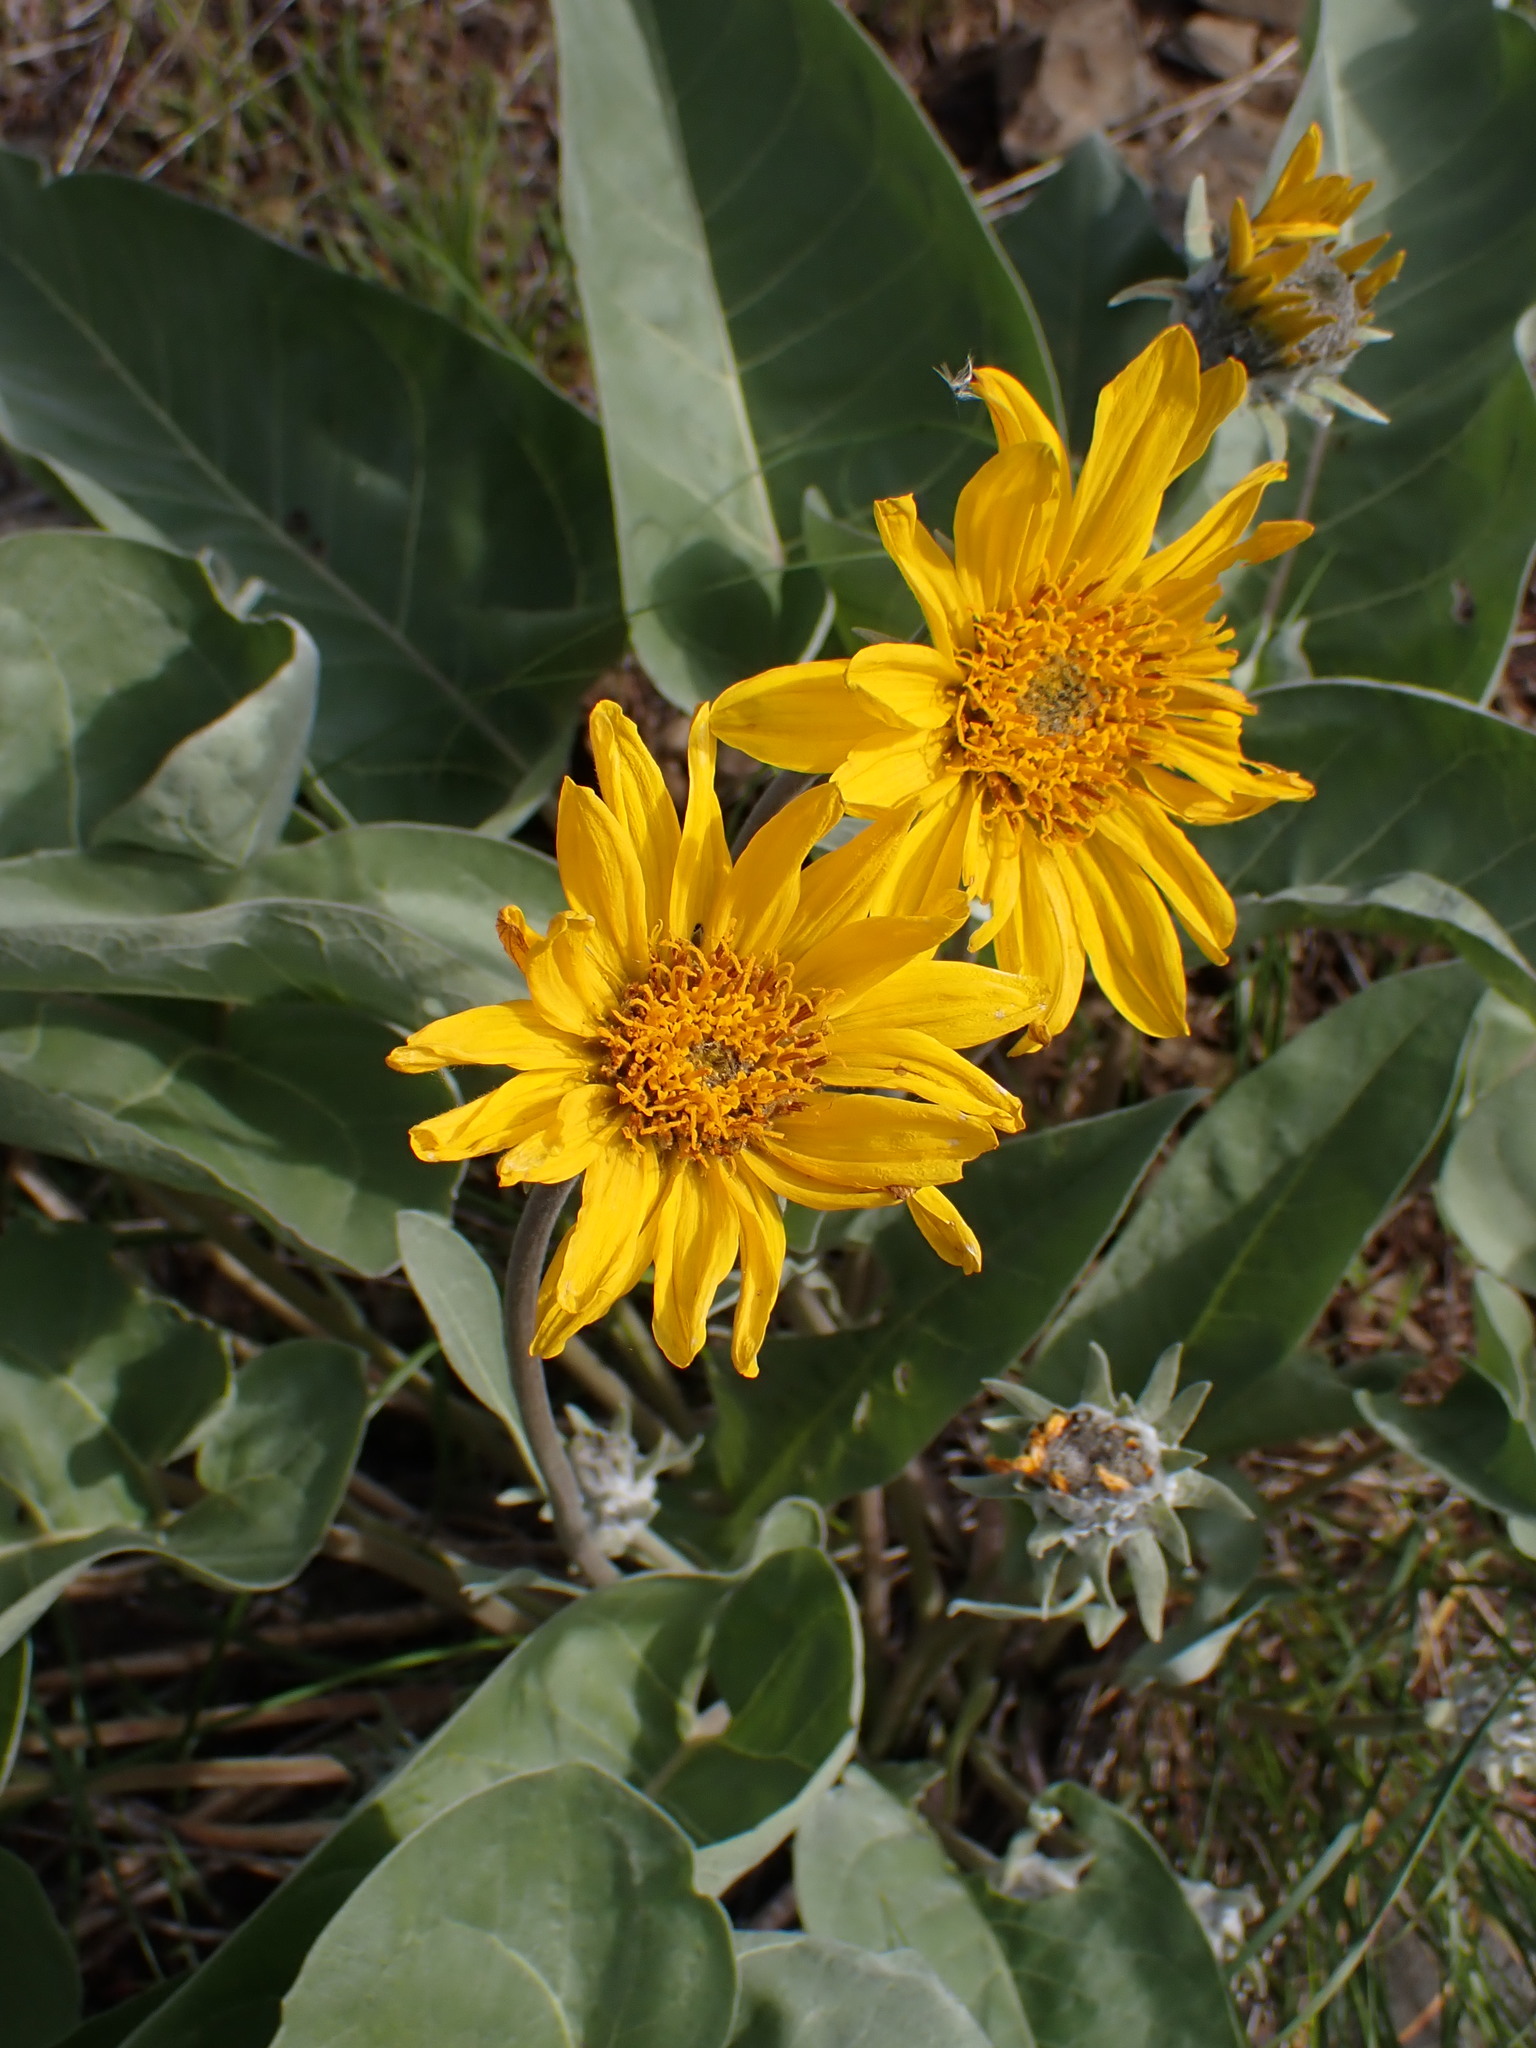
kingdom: Plantae
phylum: Tracheophyta
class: Magnoliopsida
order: Asterales
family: Asteraceae
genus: Wyethia
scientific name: Wyethia sagittata
